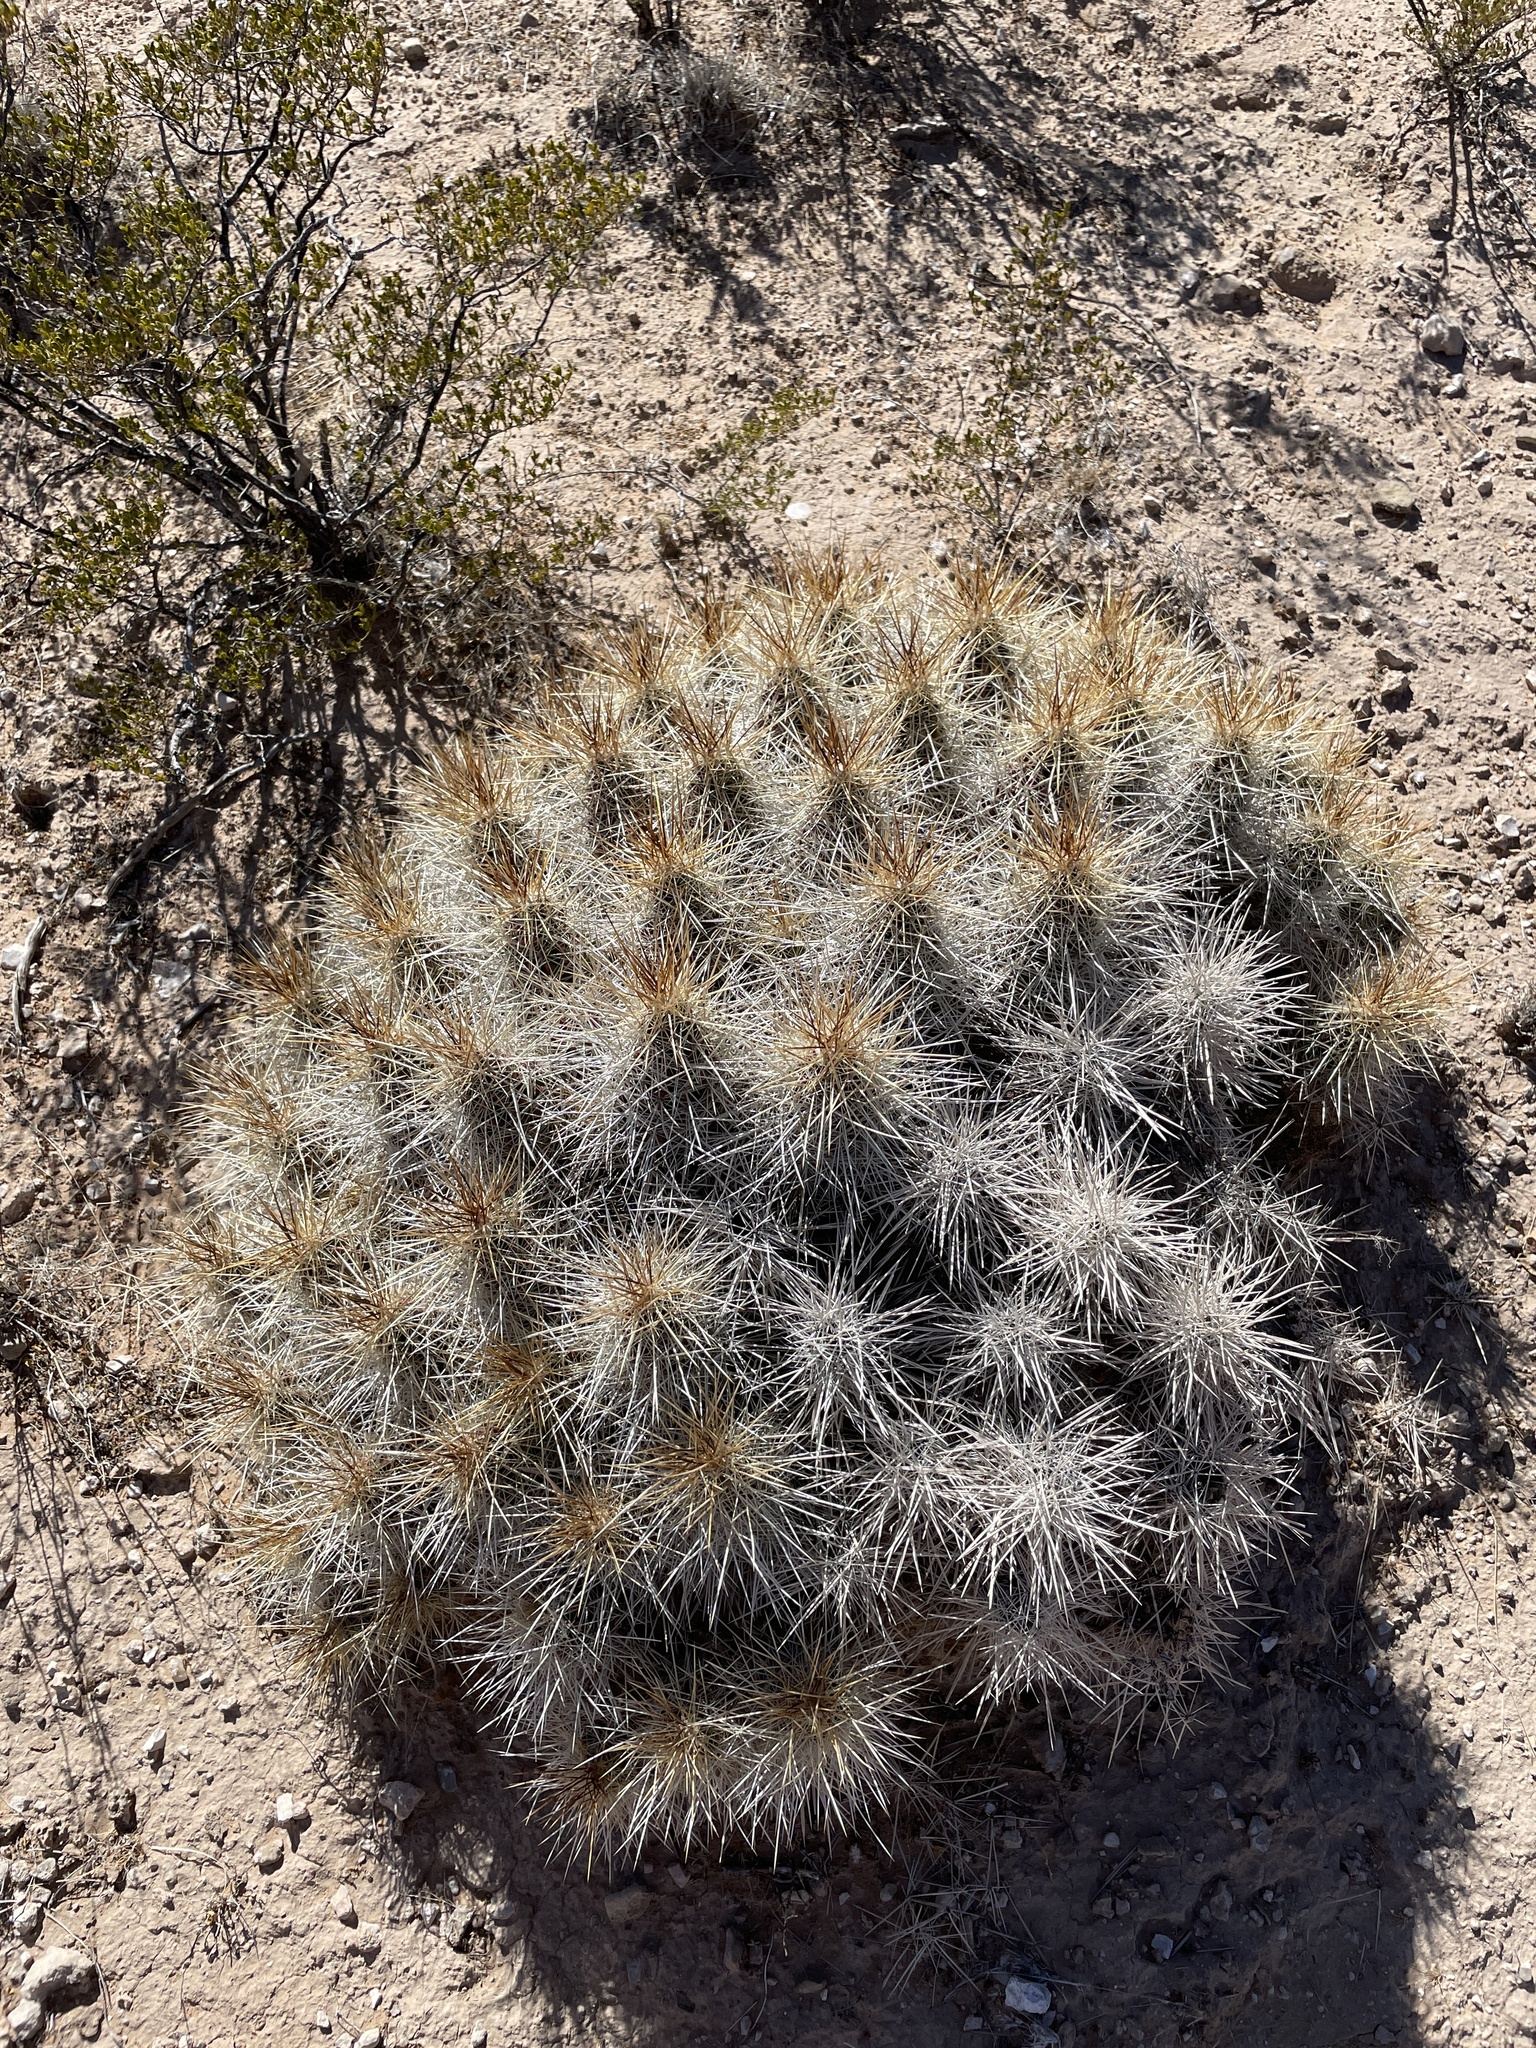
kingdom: Plantae
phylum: Tracheophyta
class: Magnoliopsida
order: Caryophyllales
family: Cactaceae
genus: Echinocereus
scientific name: Echinocereus stramineus
